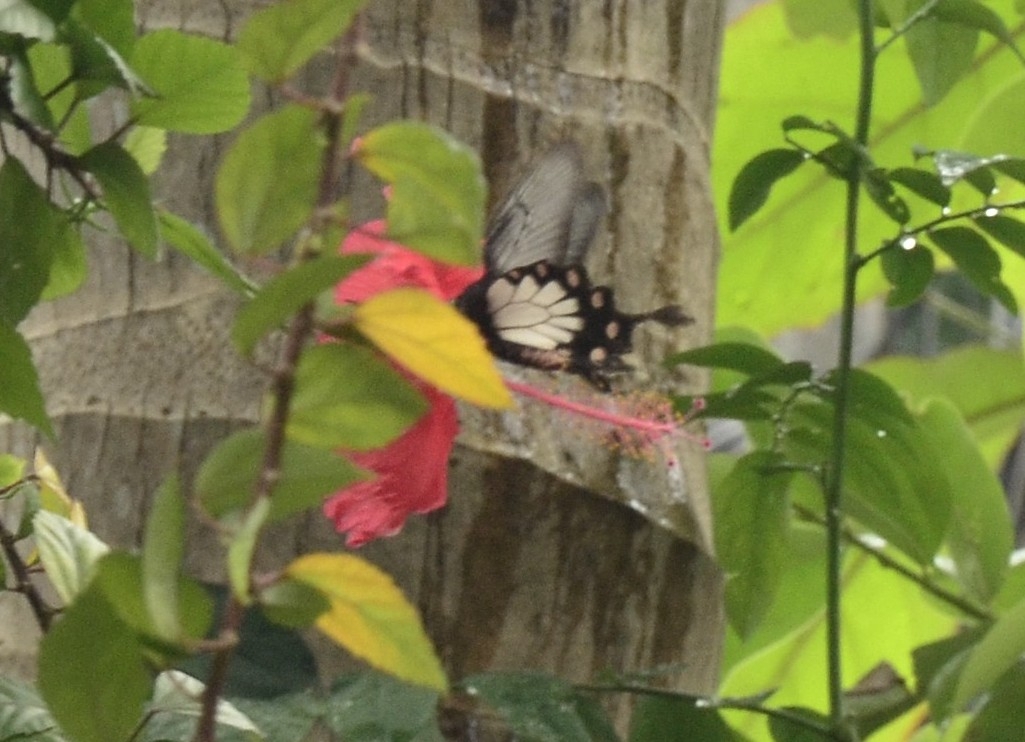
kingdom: Animalia
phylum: Arthropoda
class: Insecta
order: Lepidoptera
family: Papilionidae
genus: Pachliopta
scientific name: Pachliopta pandiyana
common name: Malabar rose
